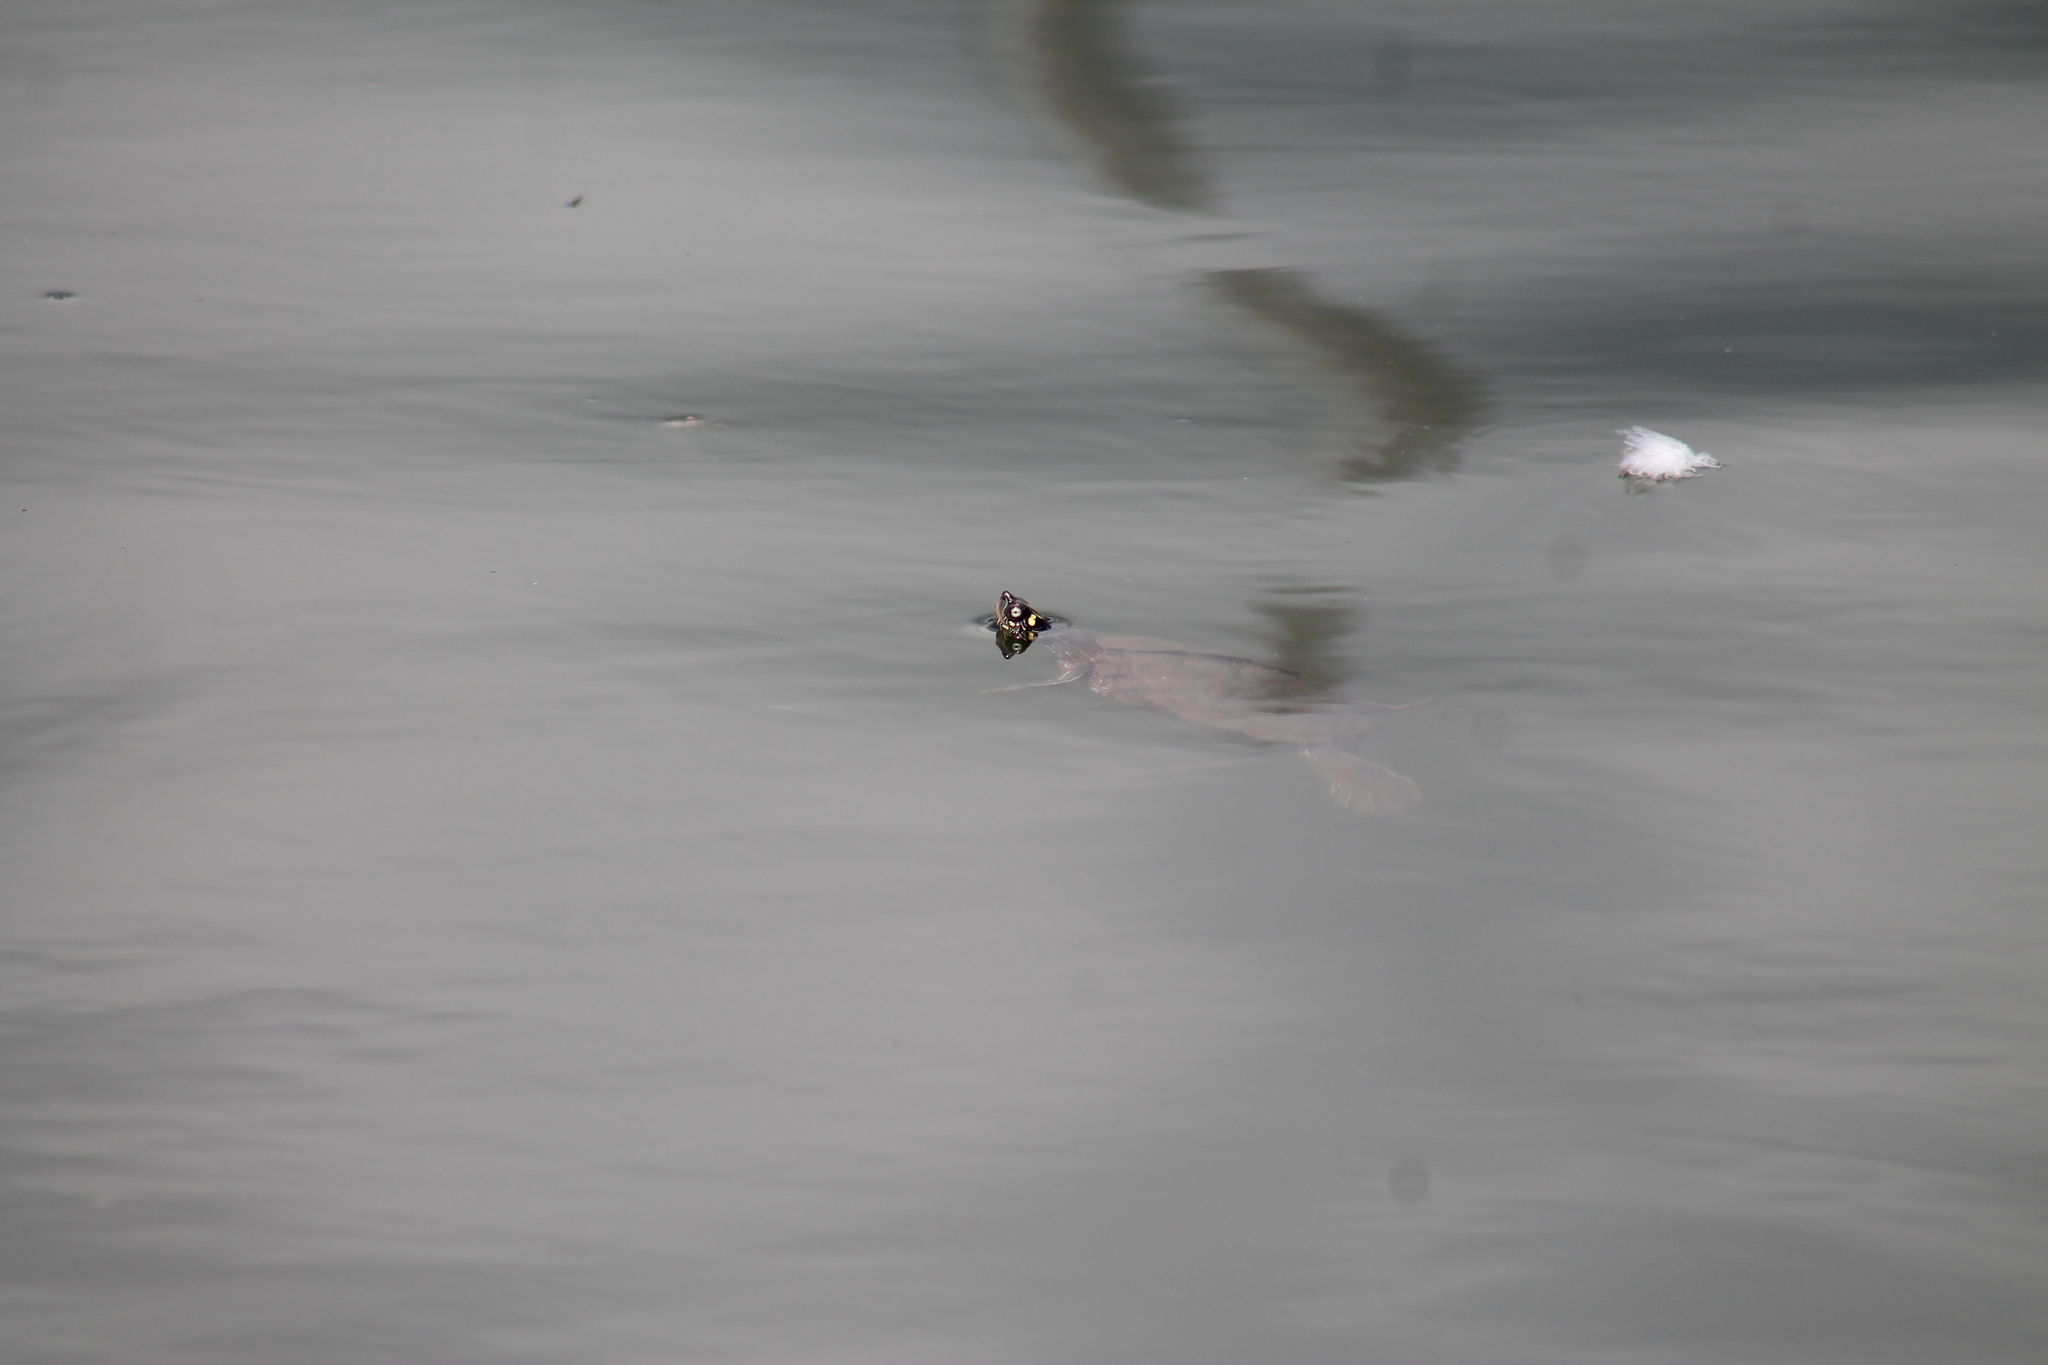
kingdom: Animalia
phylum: Chordata
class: Testudines
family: Emydidae
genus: Graptemys
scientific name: Graptemys ouachitensis
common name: Ouachita map turtle
